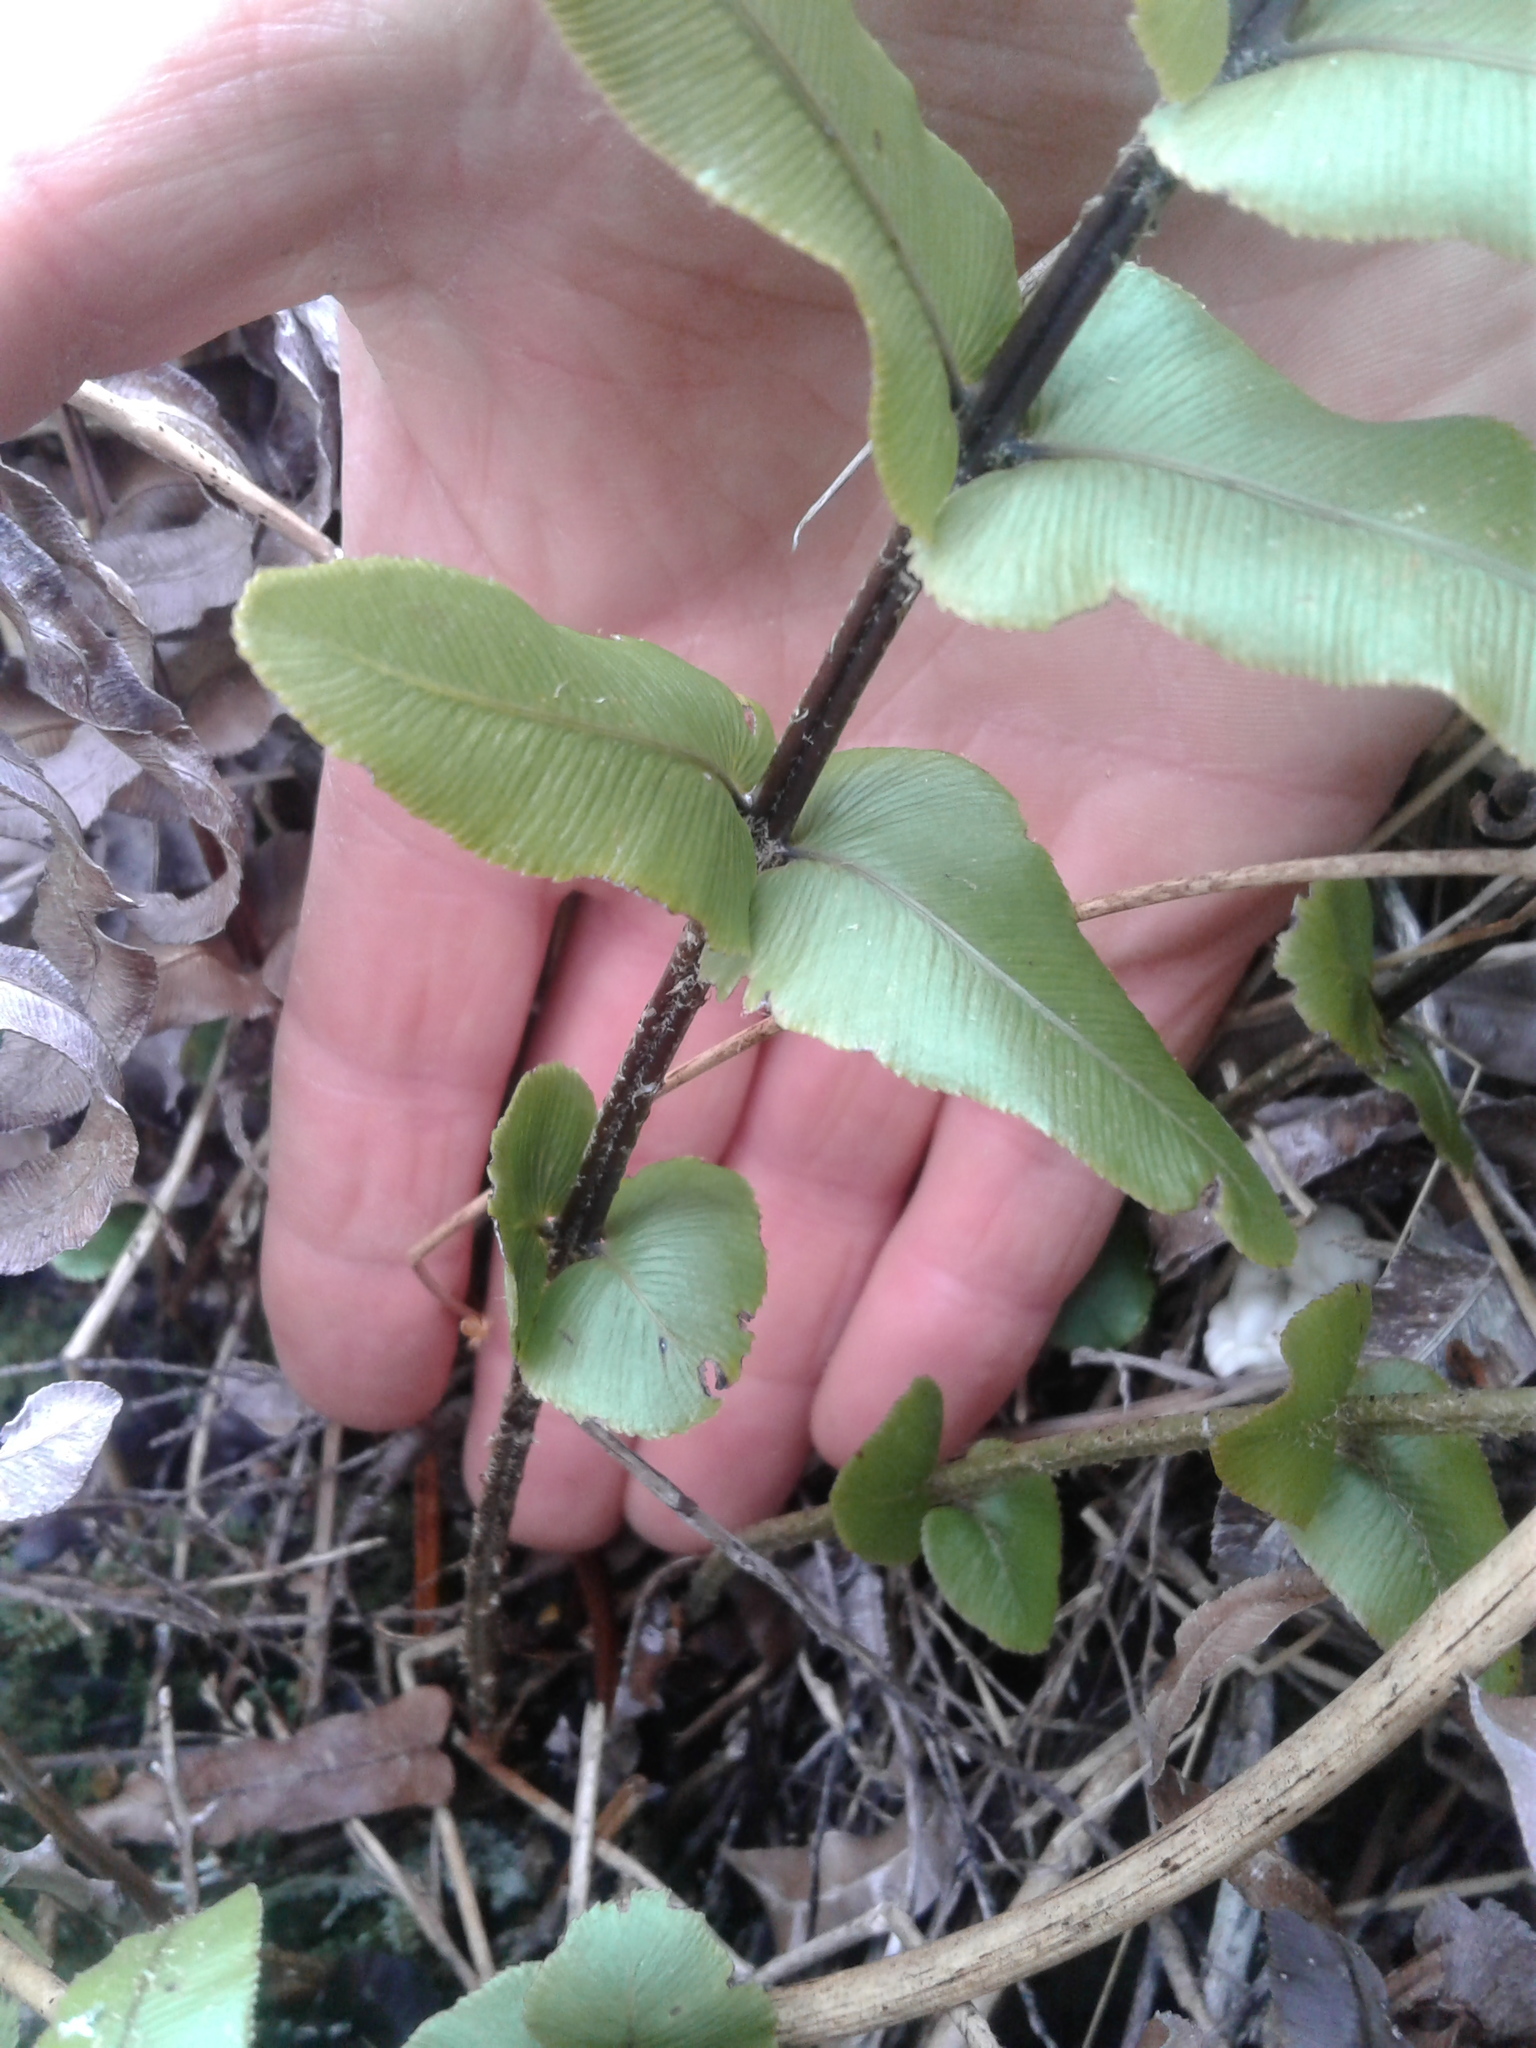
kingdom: Plantae
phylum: Tracheophyta
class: Polypodiopsida
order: Polypodiales
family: Blechnaceae
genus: Parablechnum
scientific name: Parablechnum novae-zelandiae
